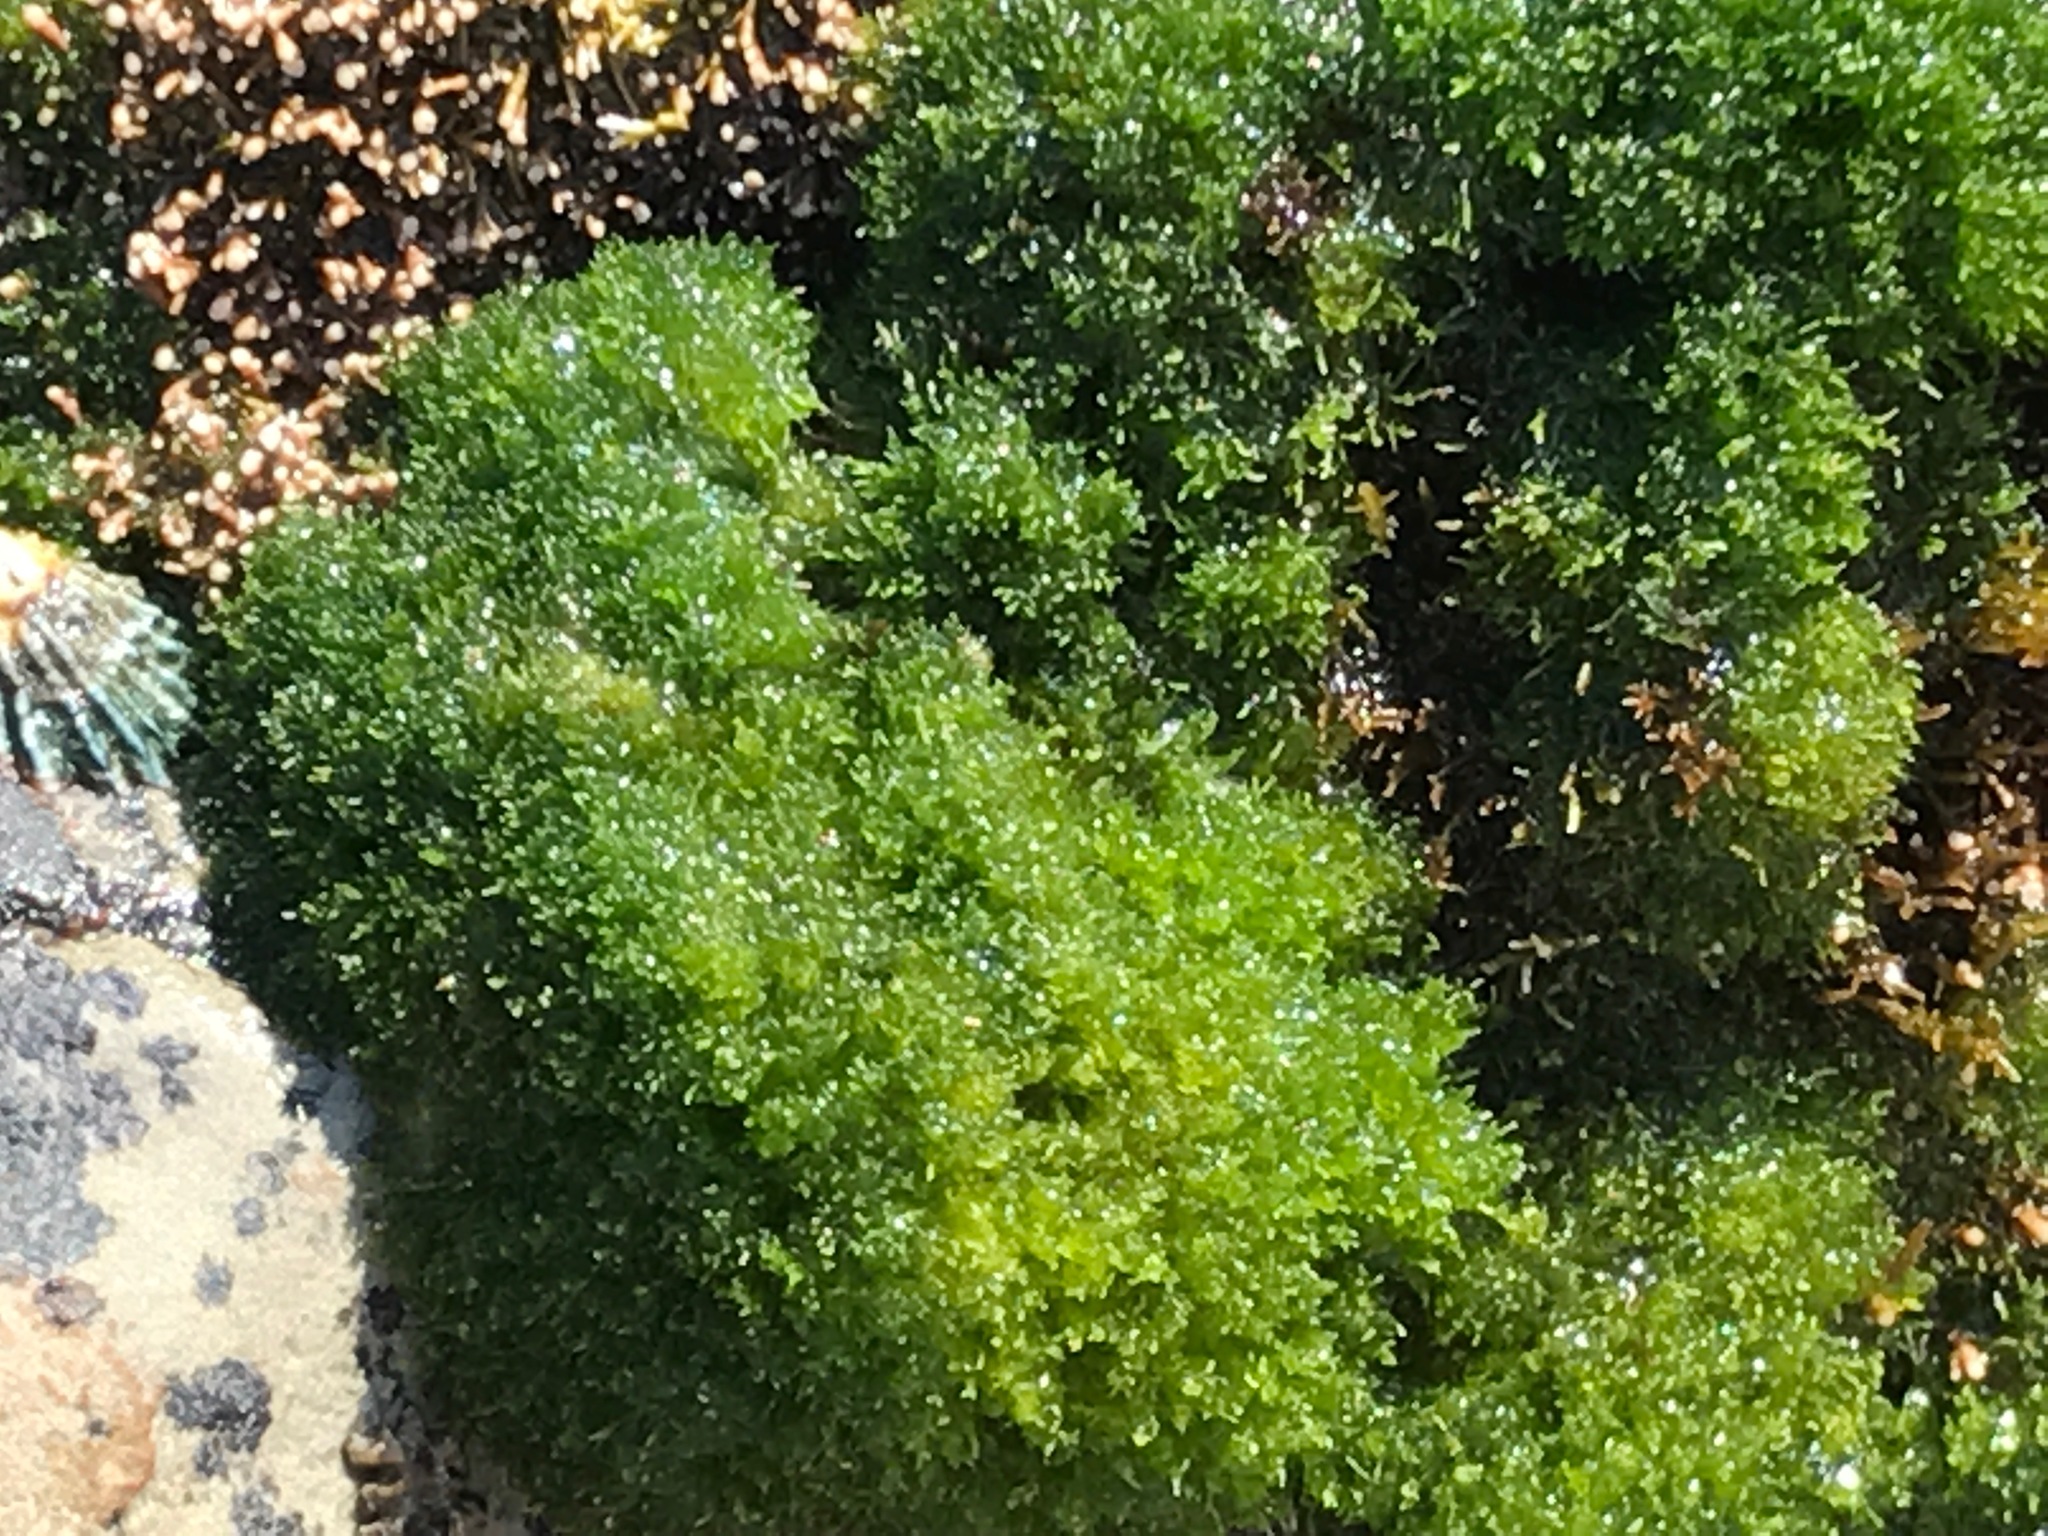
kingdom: Plantae
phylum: Chlorophyta
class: Ulvophyceae
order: Cladophorales
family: Cladophoraceae
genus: Cladophora
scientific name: Cladophora columbiana
